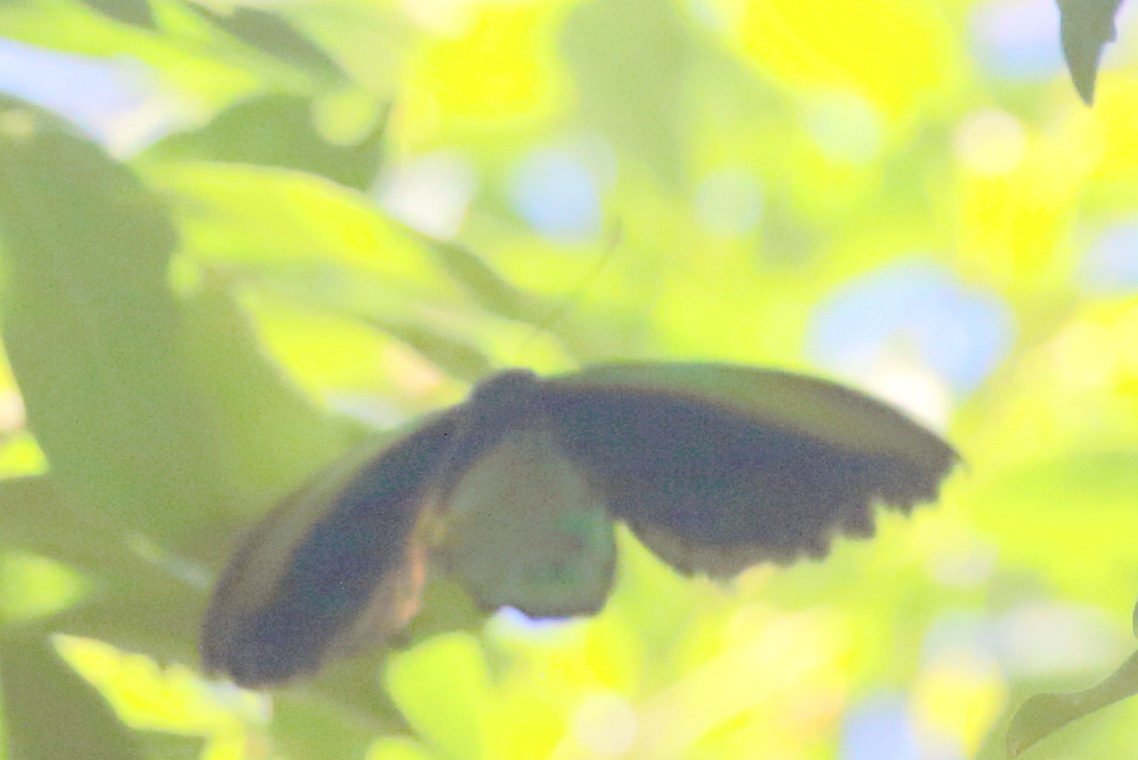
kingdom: Animalia
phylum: Arthropoda
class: Insecta
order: Lepidoptera
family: Papilionidae
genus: Ornithoptera
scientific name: Ornithoptera richmondia
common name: Richmond birdwing
